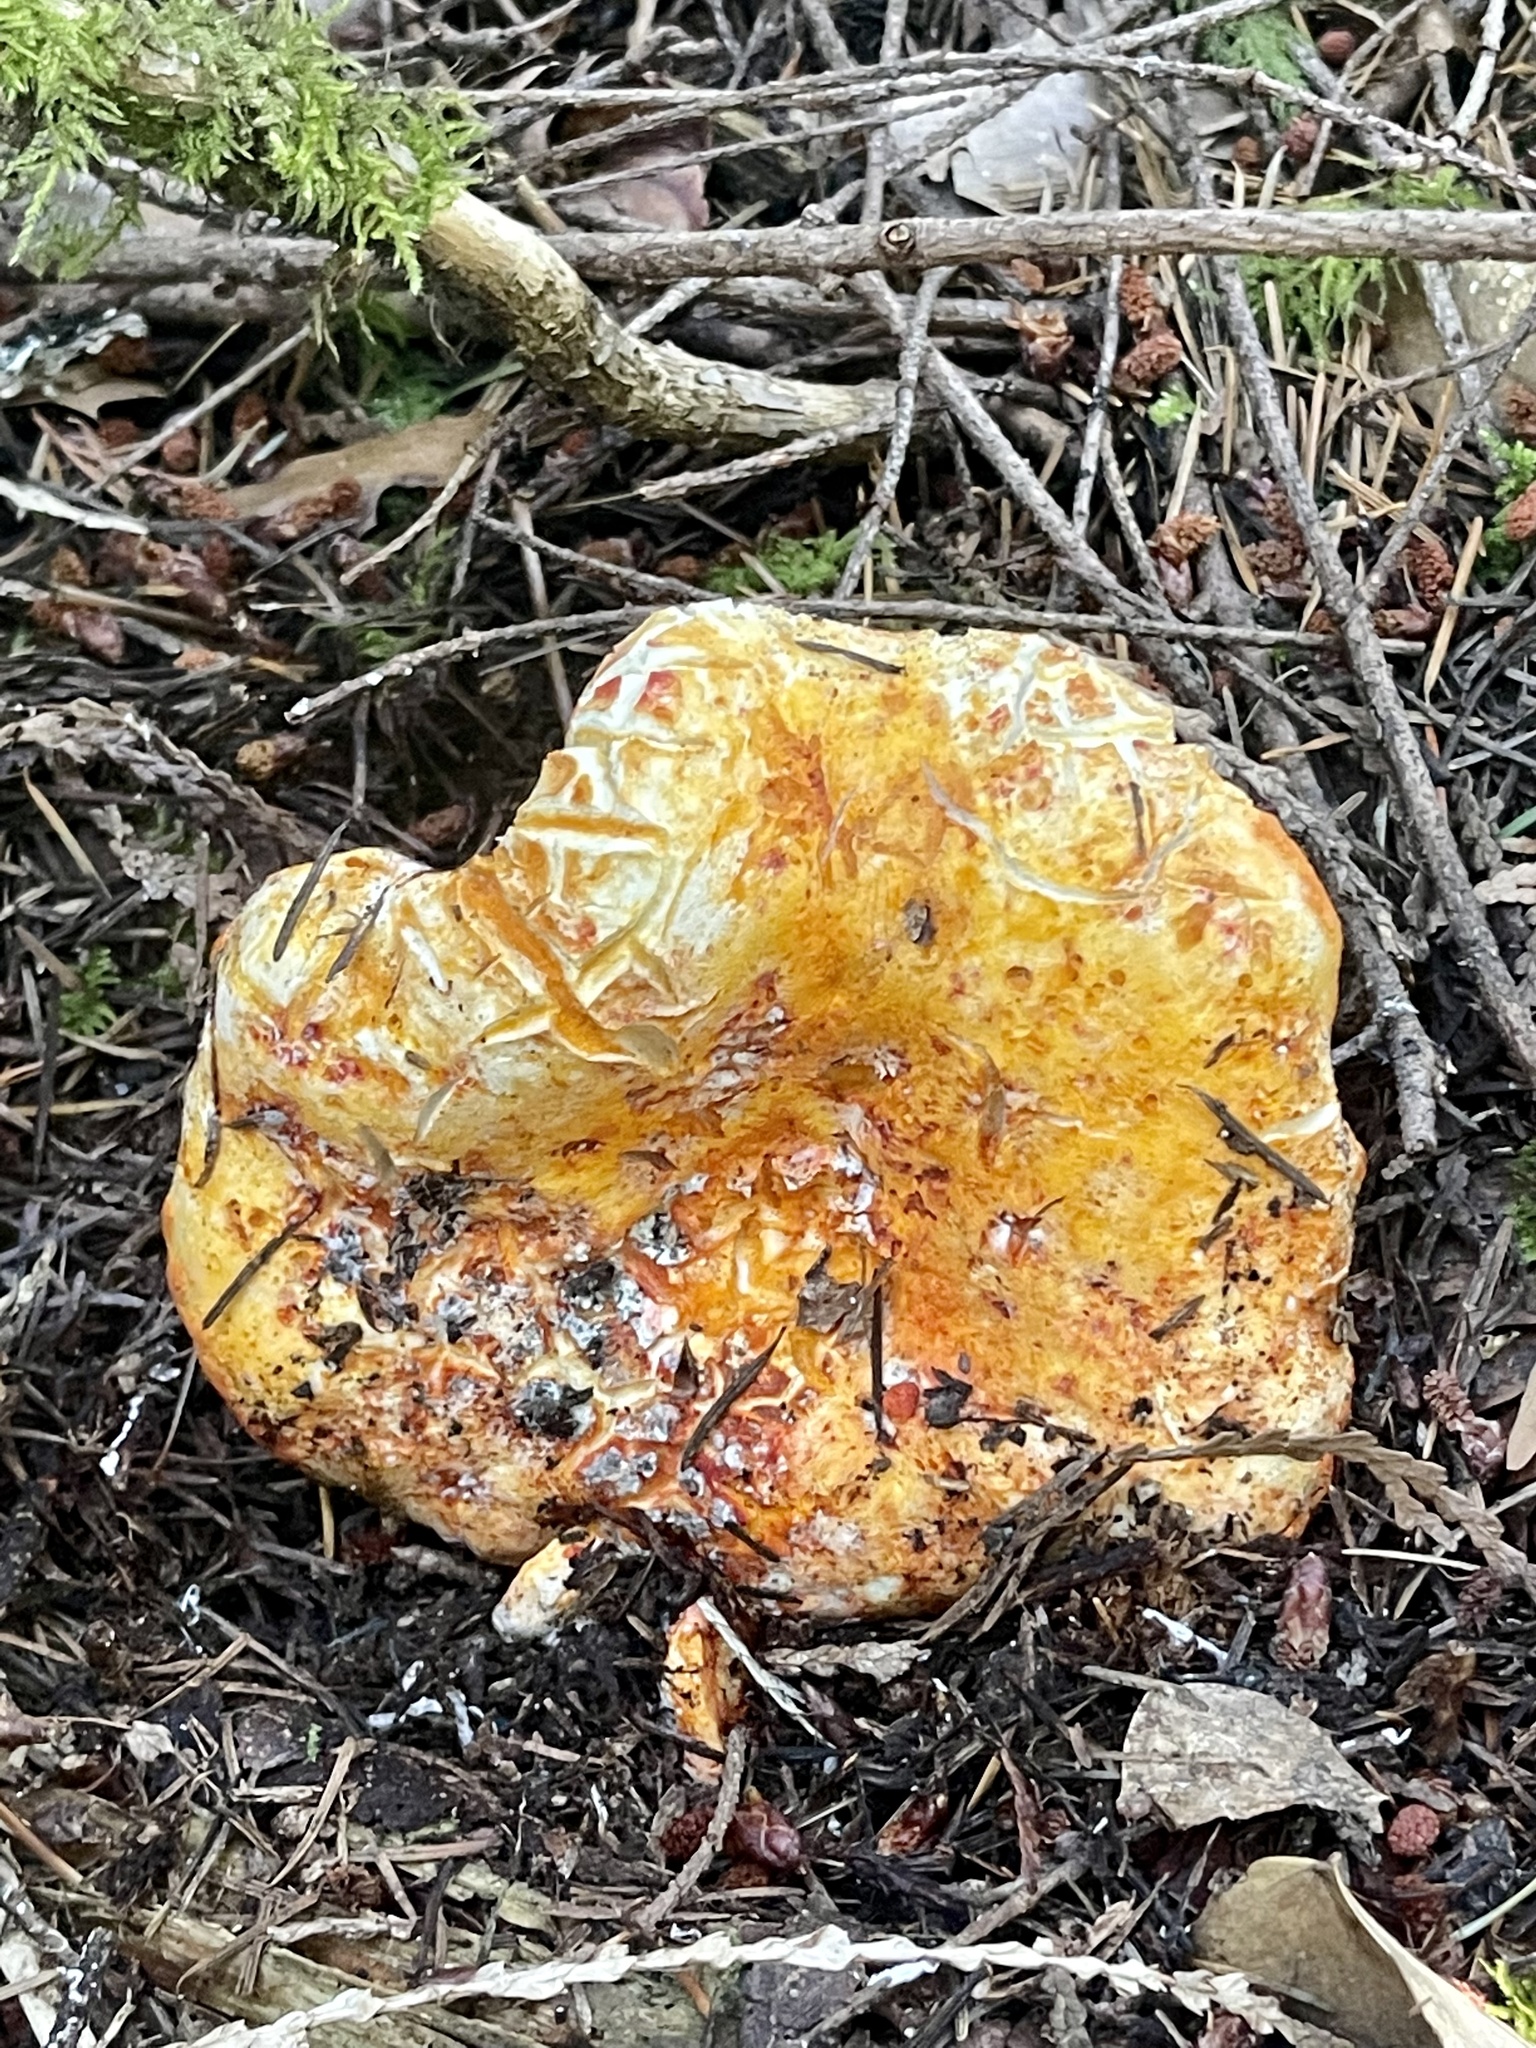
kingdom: Fungi
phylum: Ascomycota
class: Sordariomycetes
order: Hypocreales
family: Hypocreaceae
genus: Hypomyces
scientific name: Hypomyces lactifluorum
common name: Lobster mushroom
